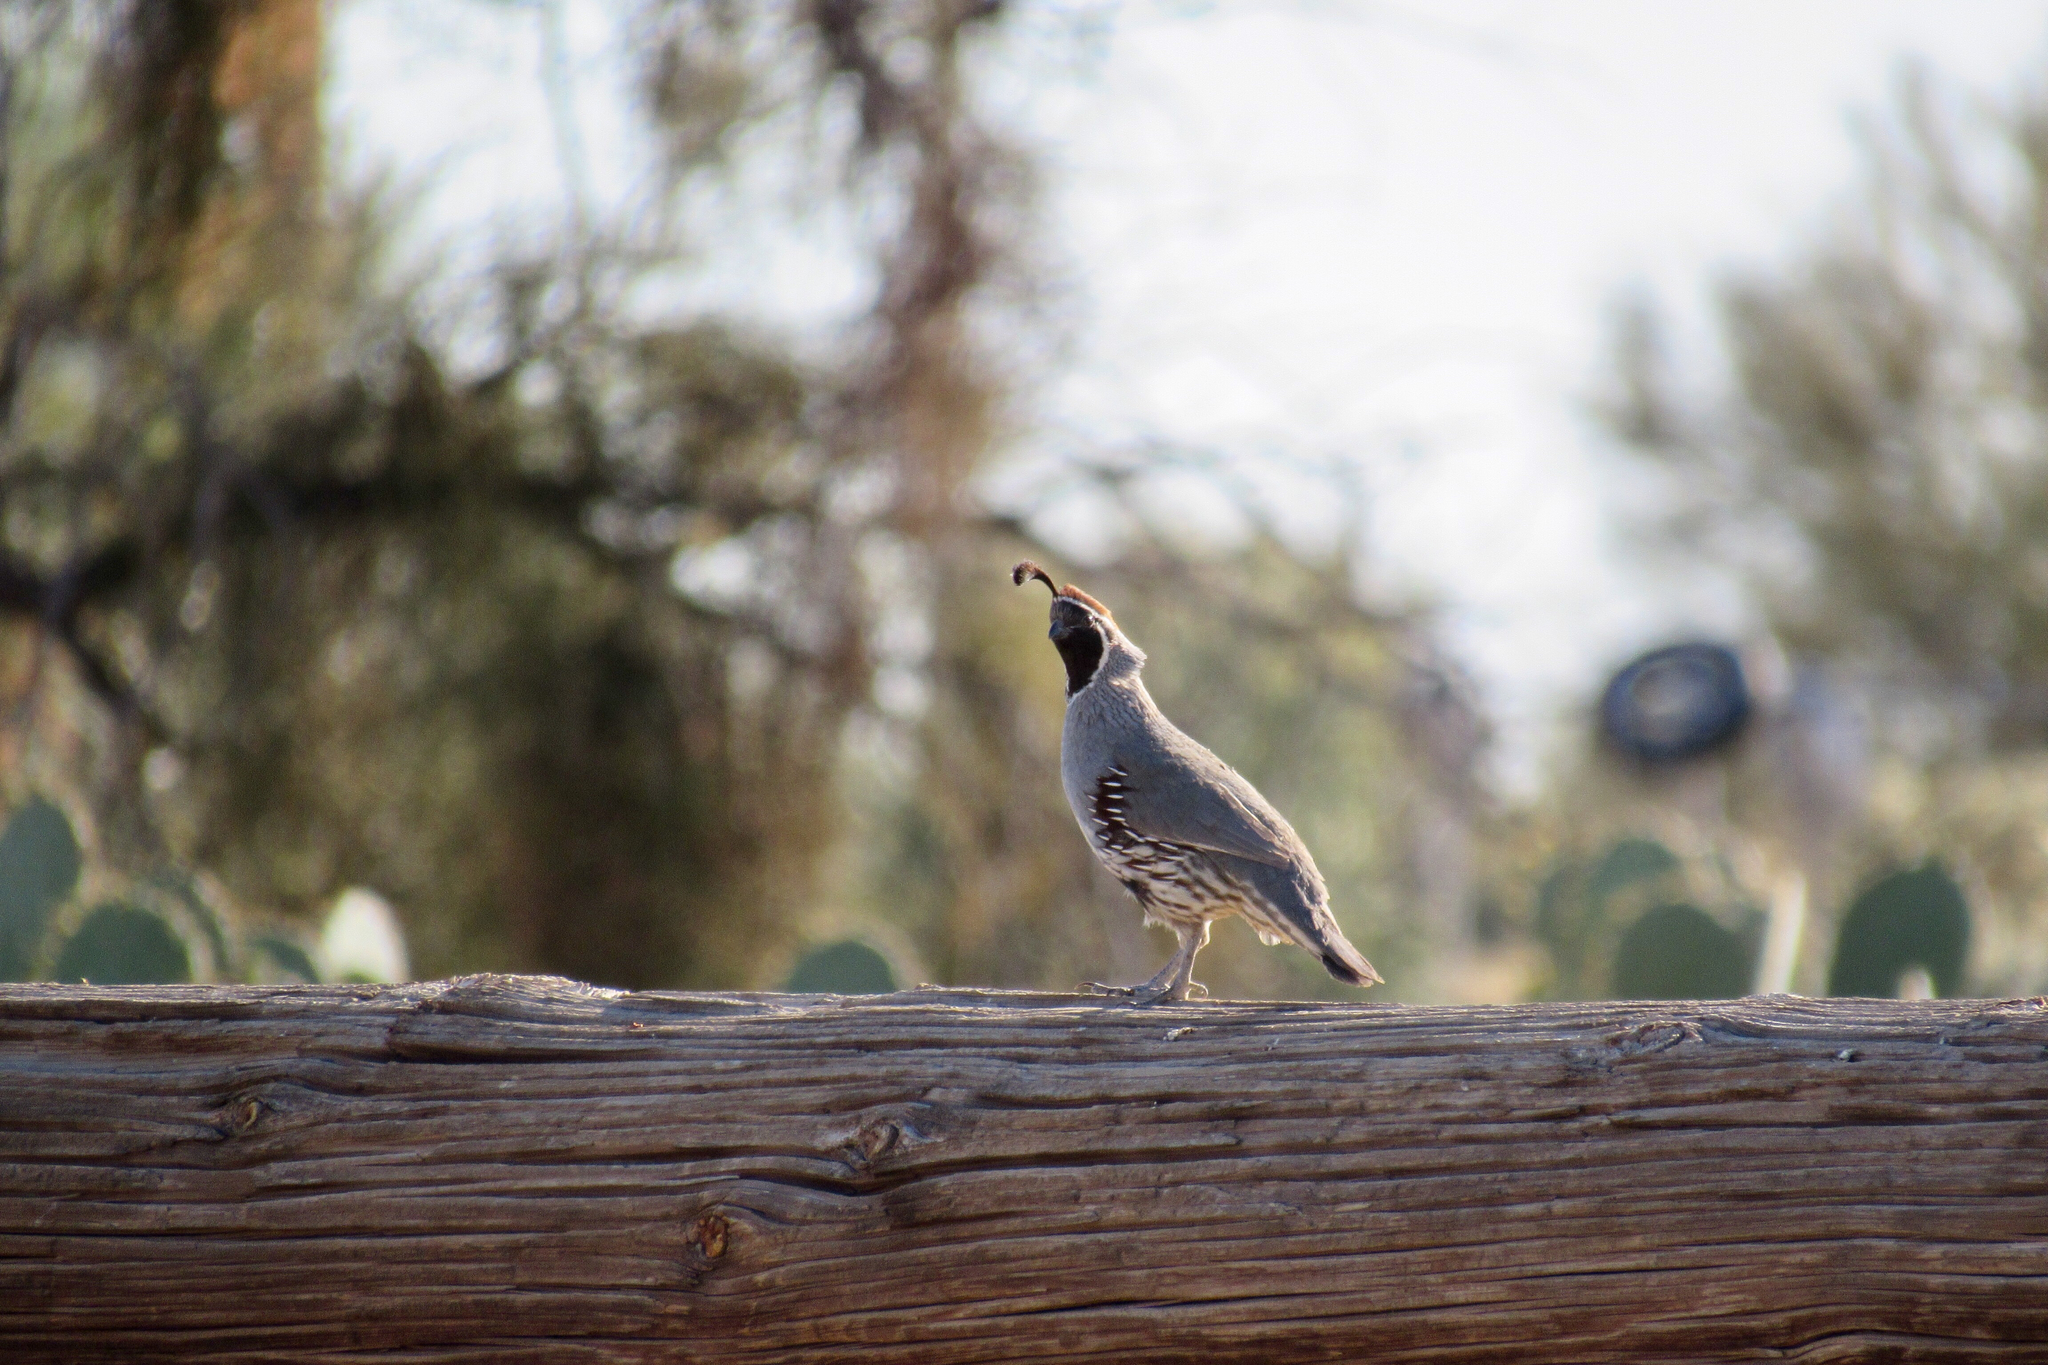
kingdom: Animalia
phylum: Chordata
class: Aves
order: Galliformes
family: Odontophoridae
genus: Callipepla
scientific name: Callipepla gambelii
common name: Gambel's quail
